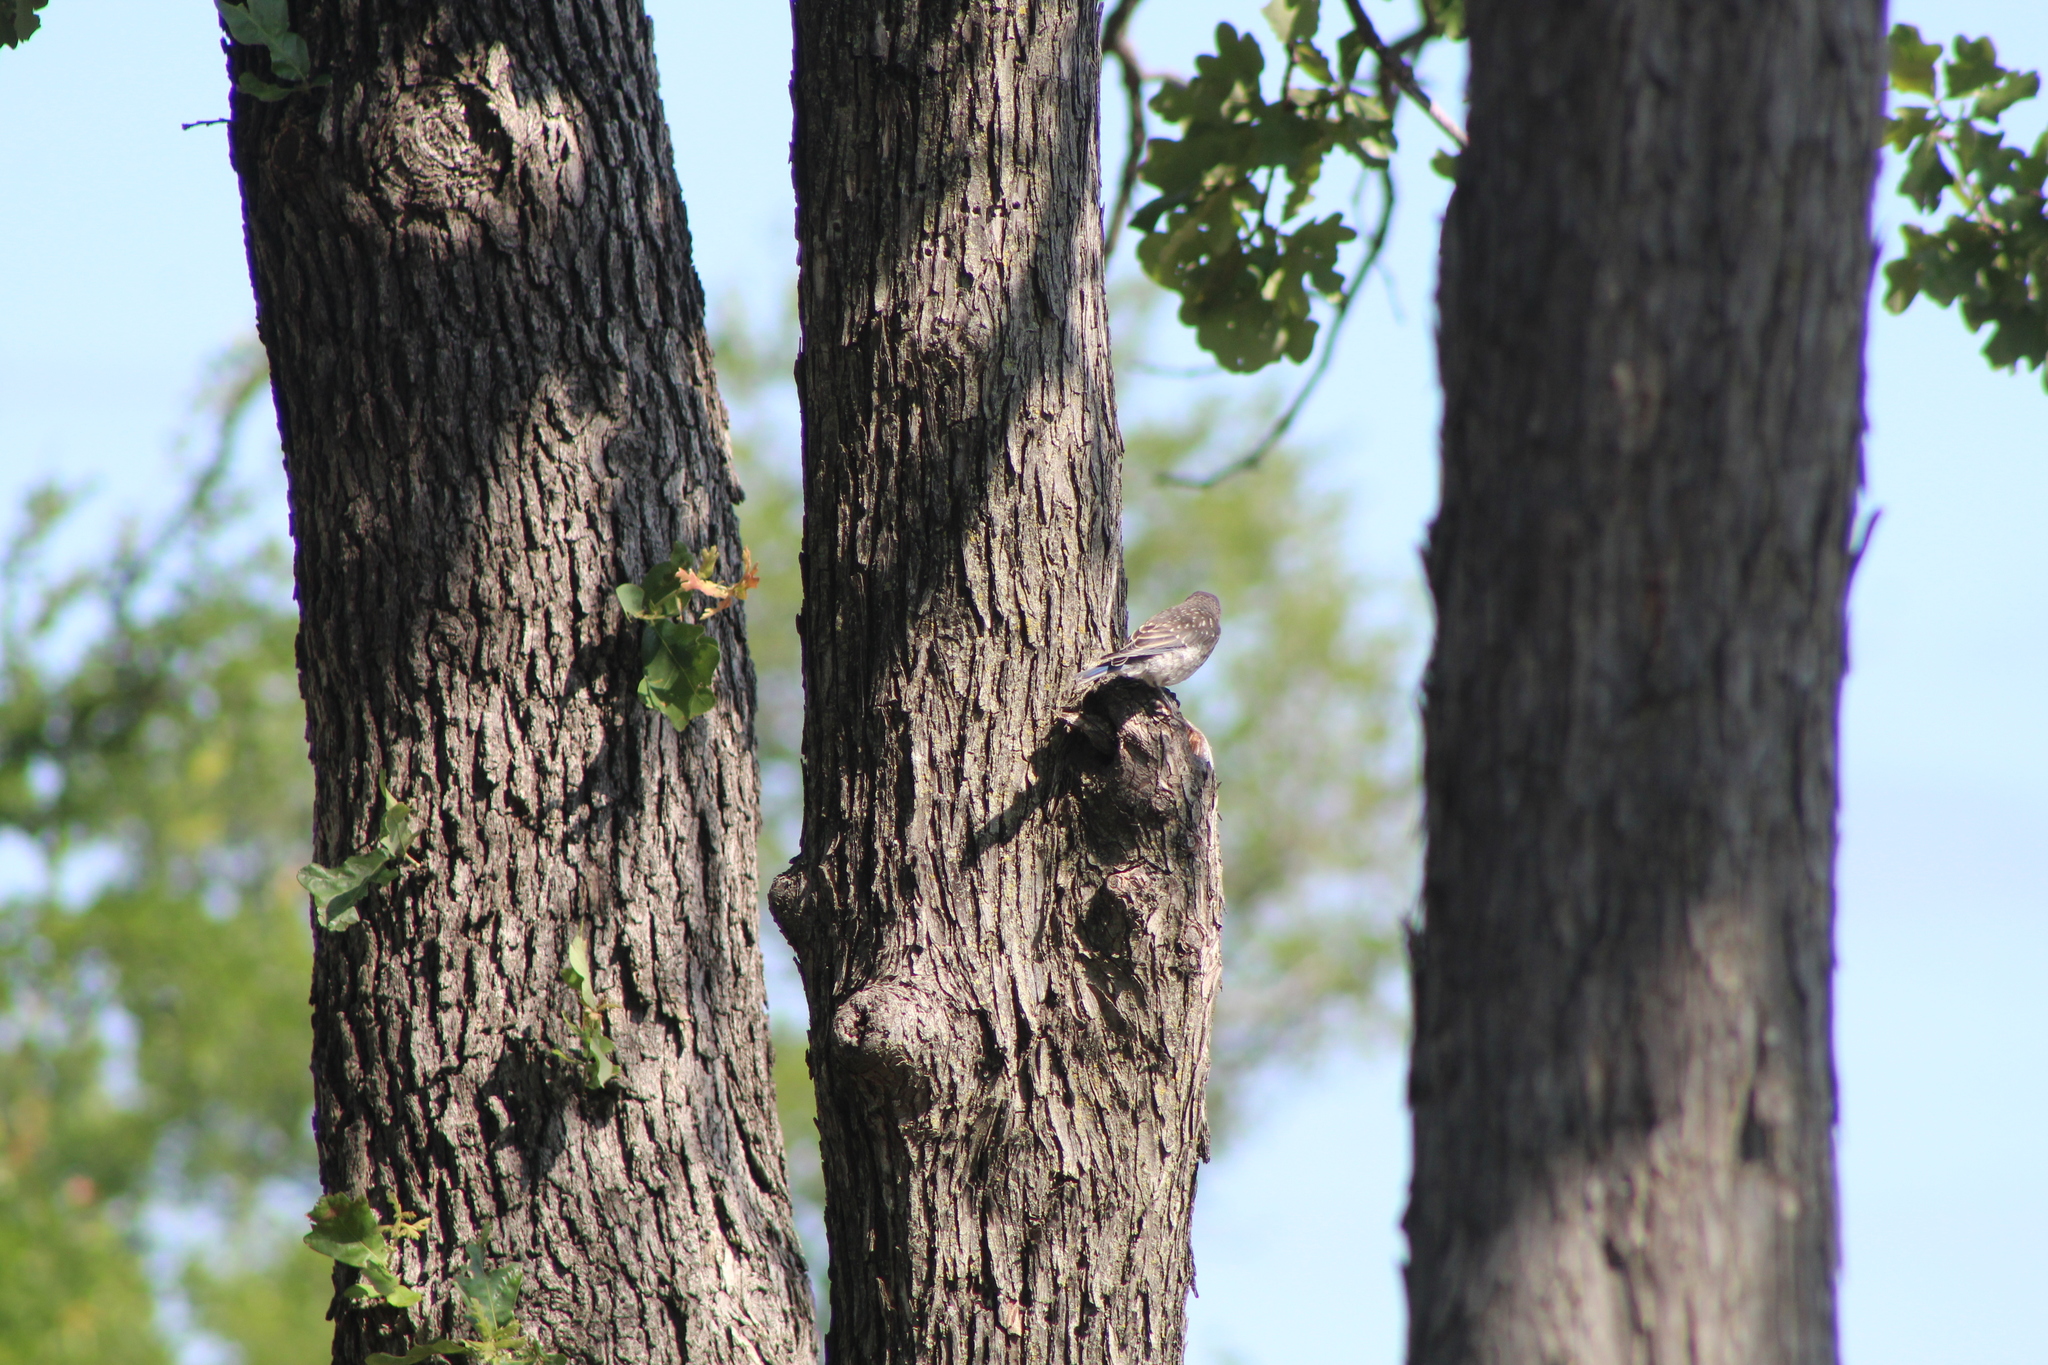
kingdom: Animalia
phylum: Chordata
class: Aves
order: Passeriformes
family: Turdidae
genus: Sialia
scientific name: Sialia sialis
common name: Eastern bluebird
